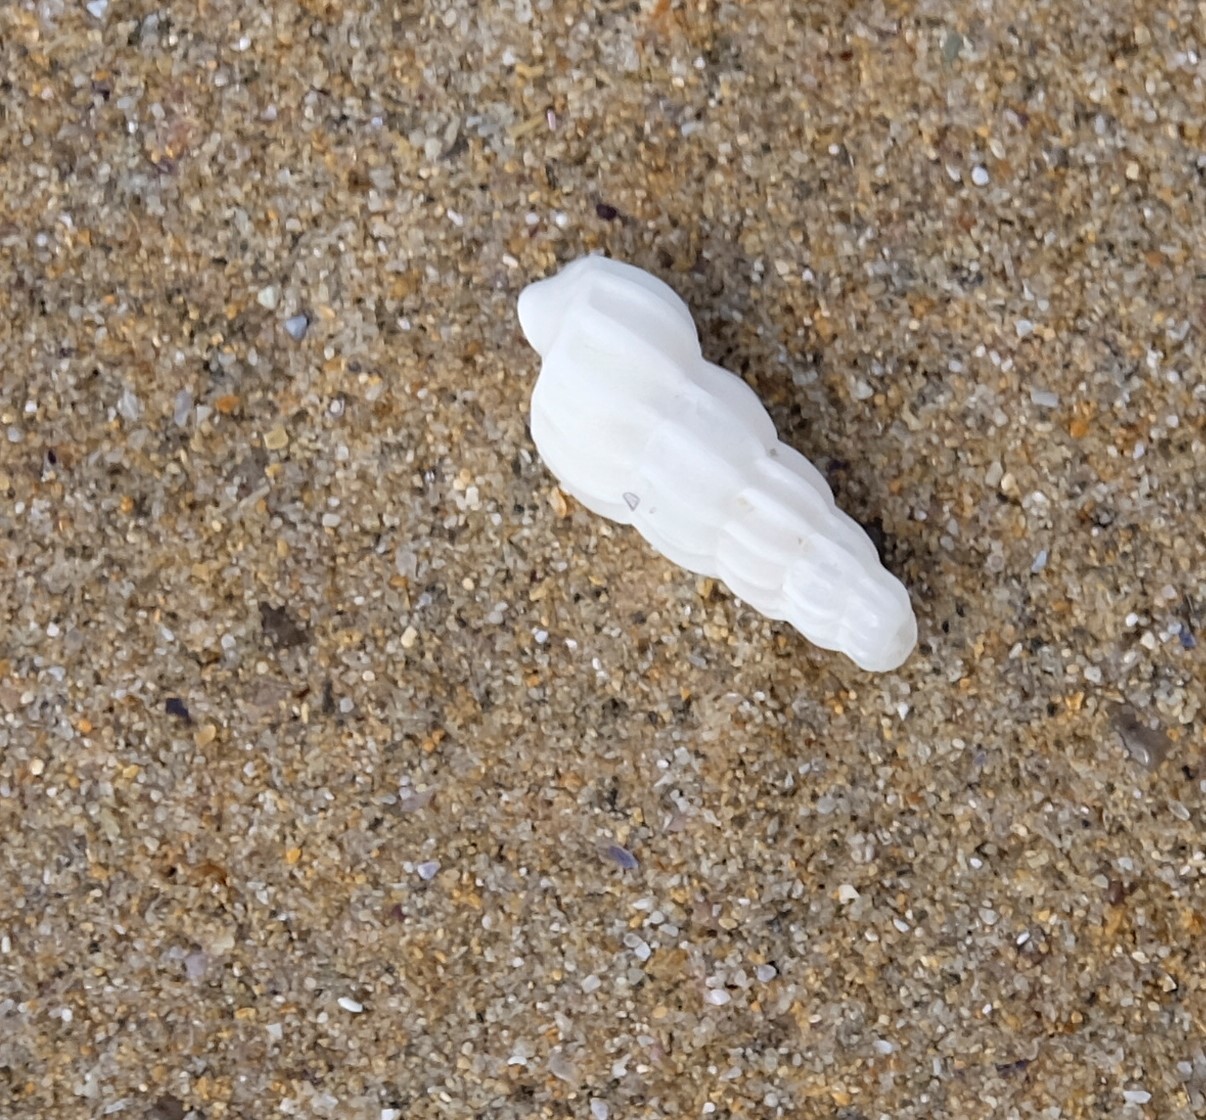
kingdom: Animalia
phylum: Mollusca
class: Gastropoda
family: Epitoniidae
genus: Opalia
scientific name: Opalia australis
